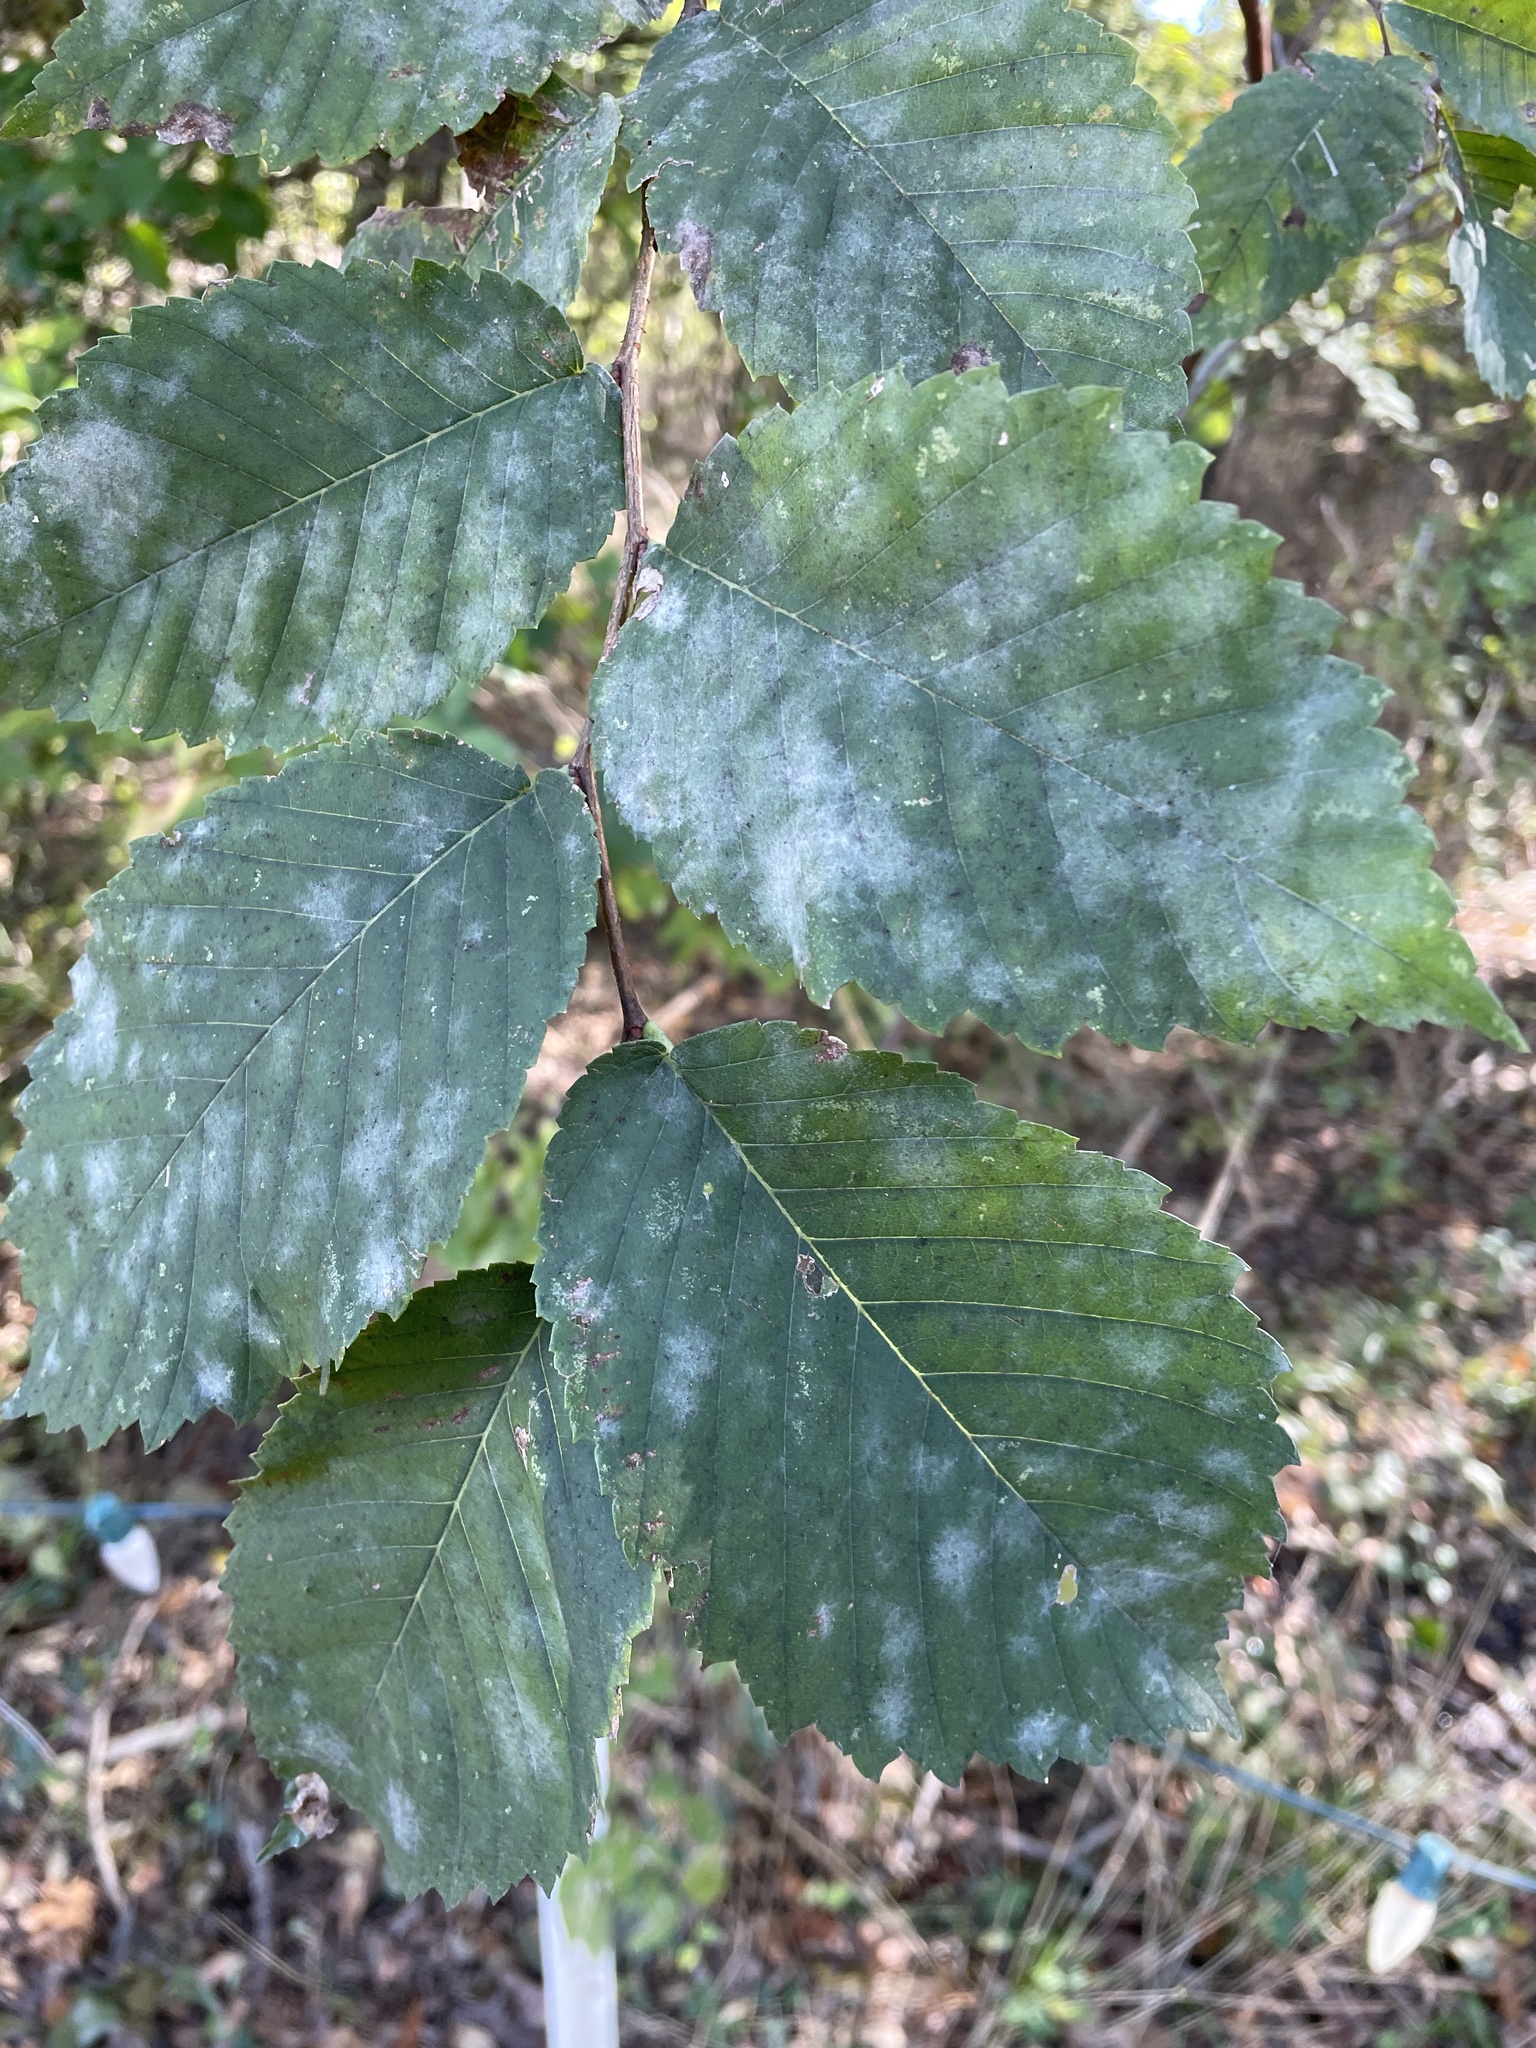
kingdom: Plantae
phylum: Tracheophyta
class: Magnoliopsida
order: Rosales
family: Ulmaceae
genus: Ulmus
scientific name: Ulmus americana
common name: American elm
